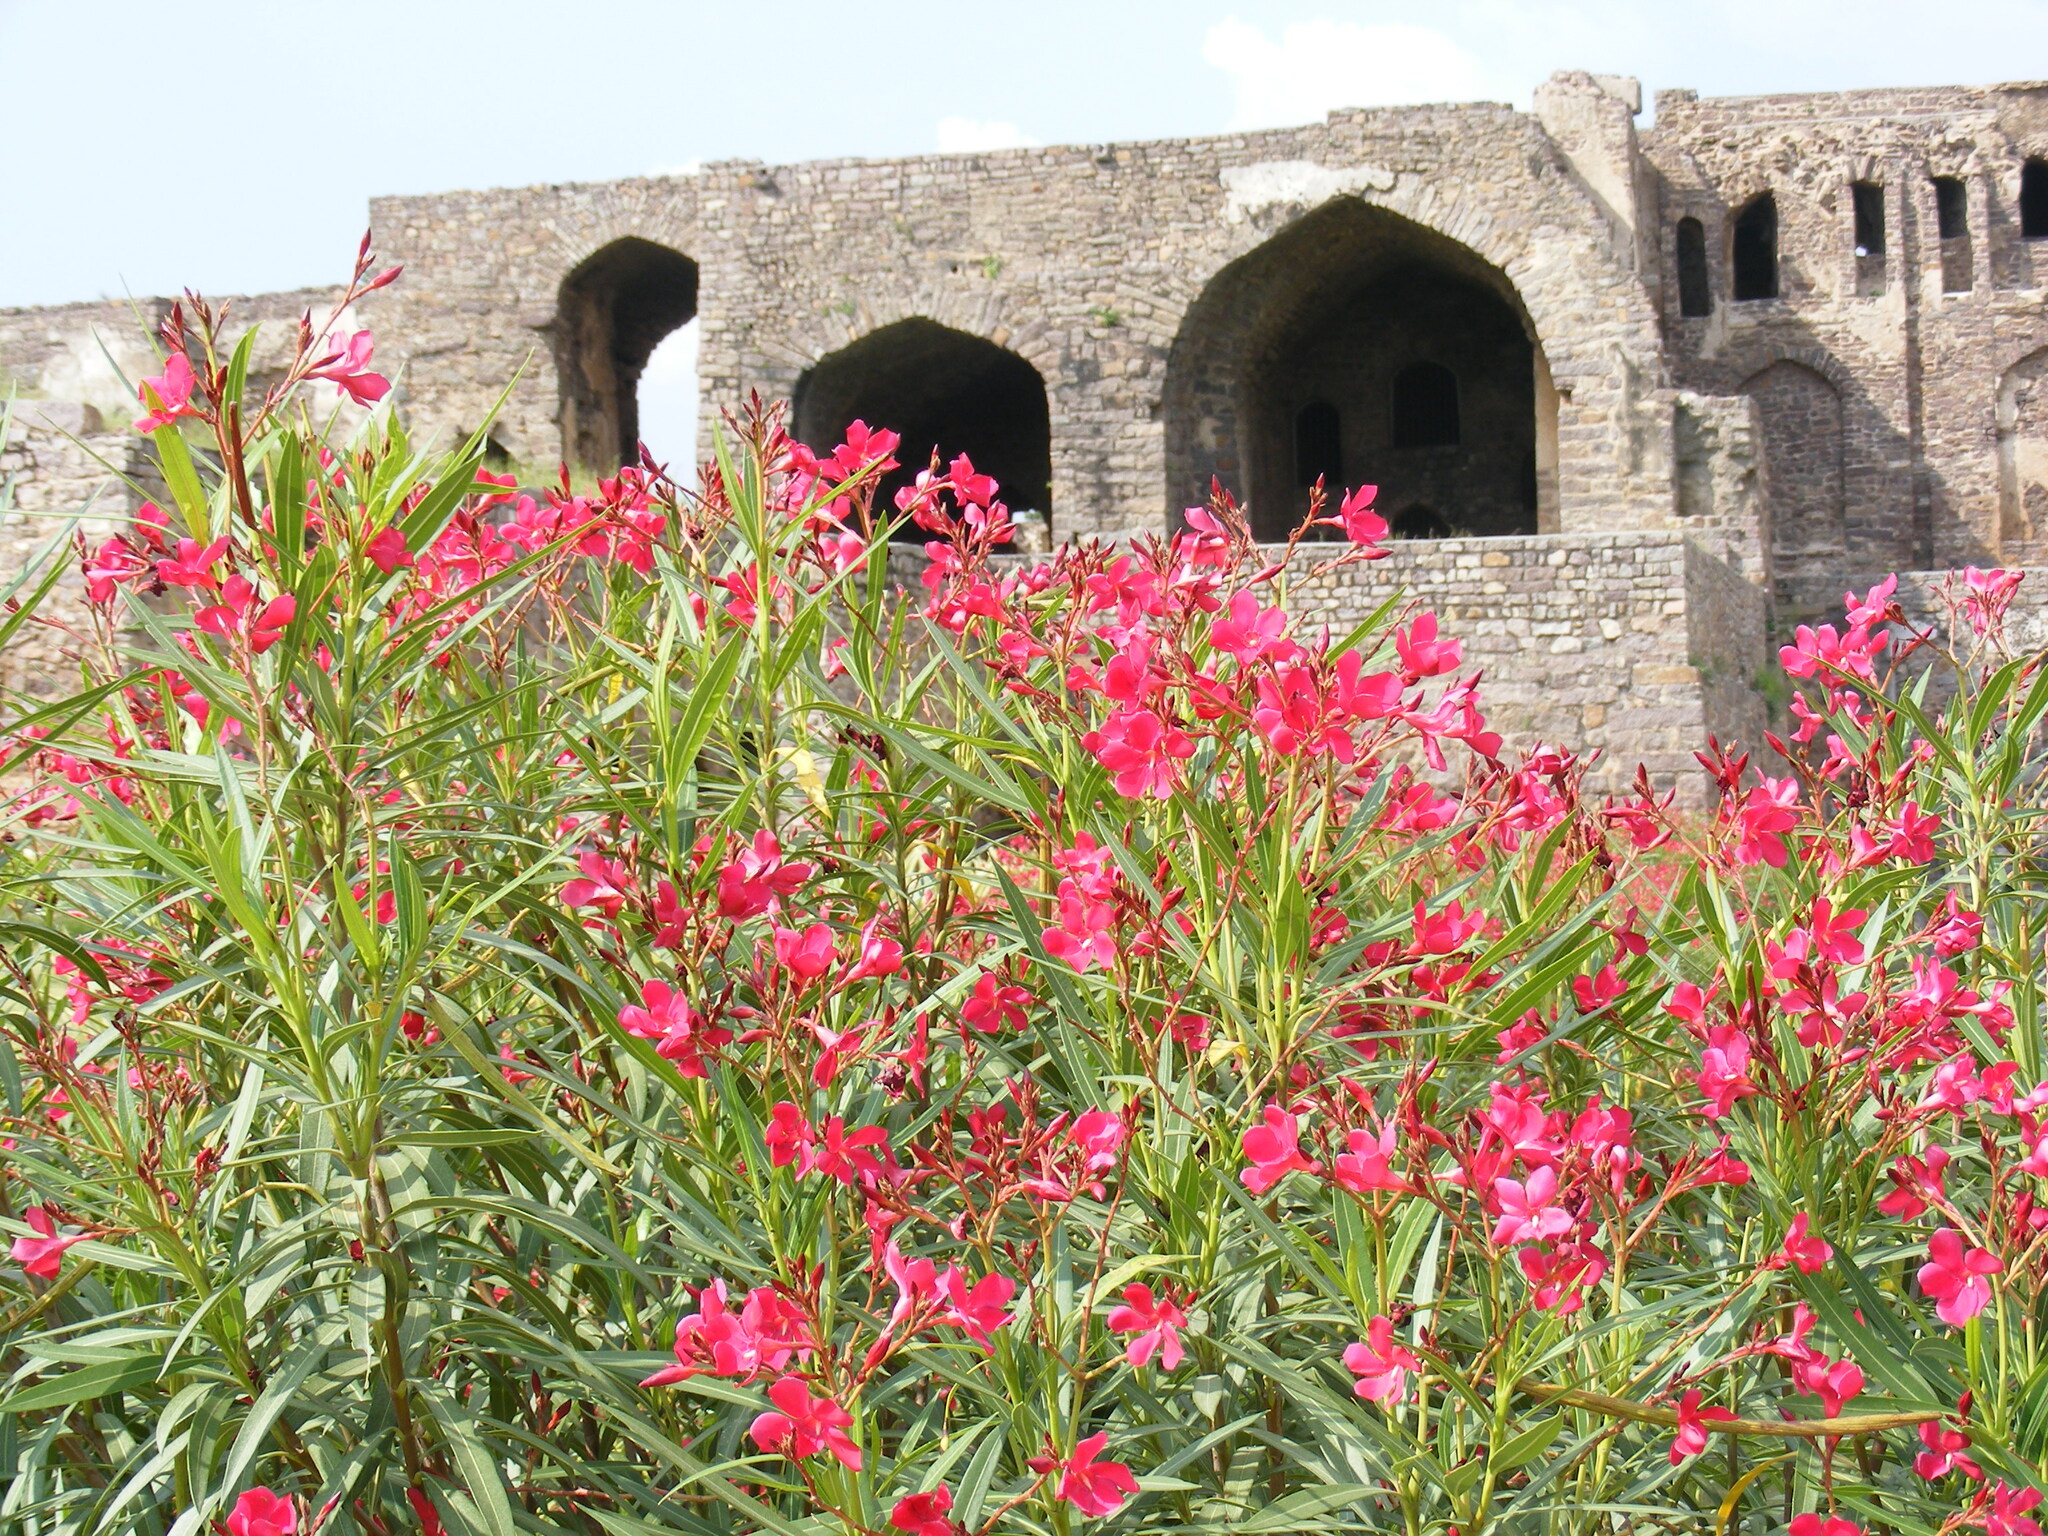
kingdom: Plantae
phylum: Tracheophyta
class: Magnoliopsida
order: Gentianales
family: Apocynaceae
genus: Nerium
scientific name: Nerium oleander
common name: Oleander
